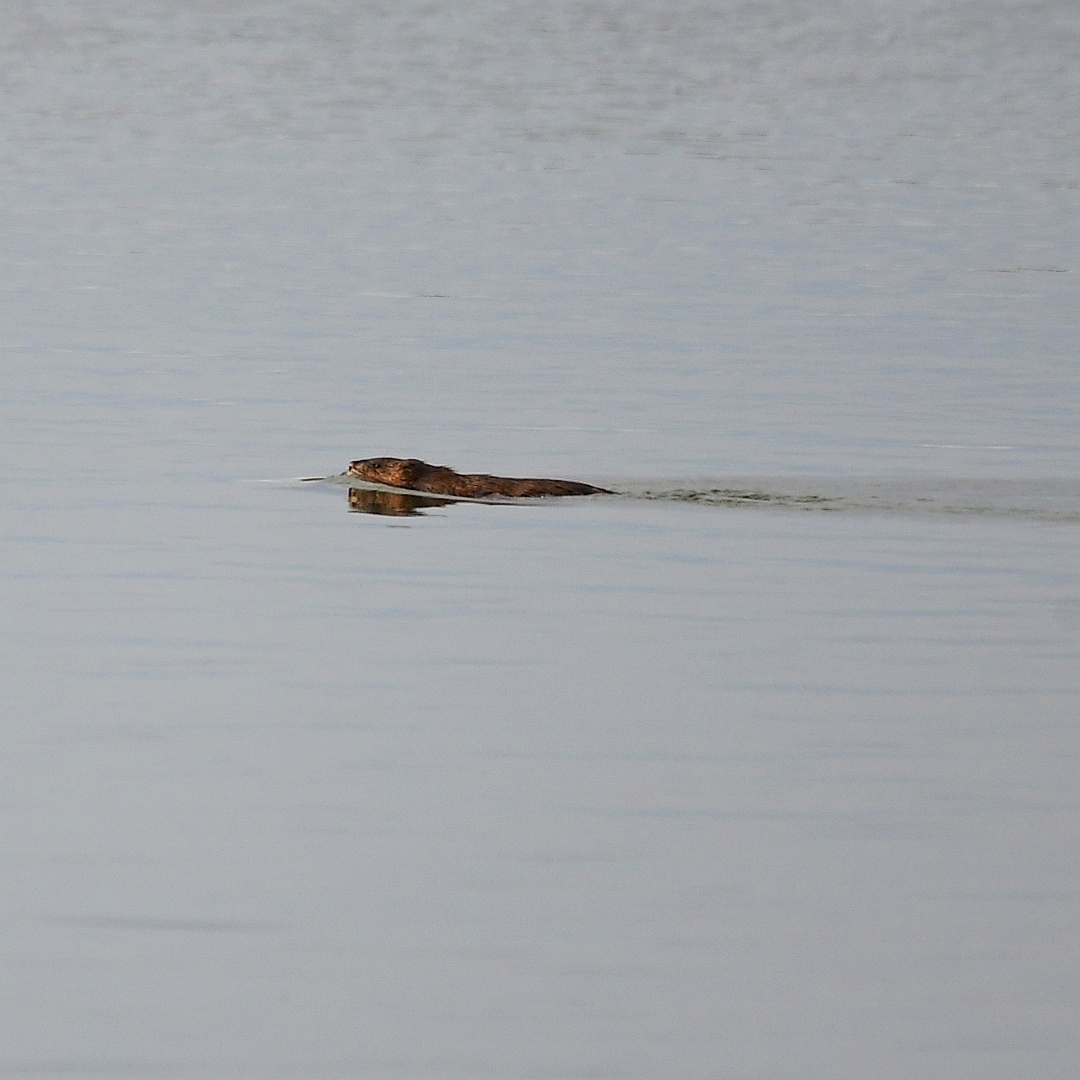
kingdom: Animalia
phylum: Chordata
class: Mammalia
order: Rodentia
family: Cricetidae
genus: Ondatra
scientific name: Ondatra zibethicus
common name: Muskrat
